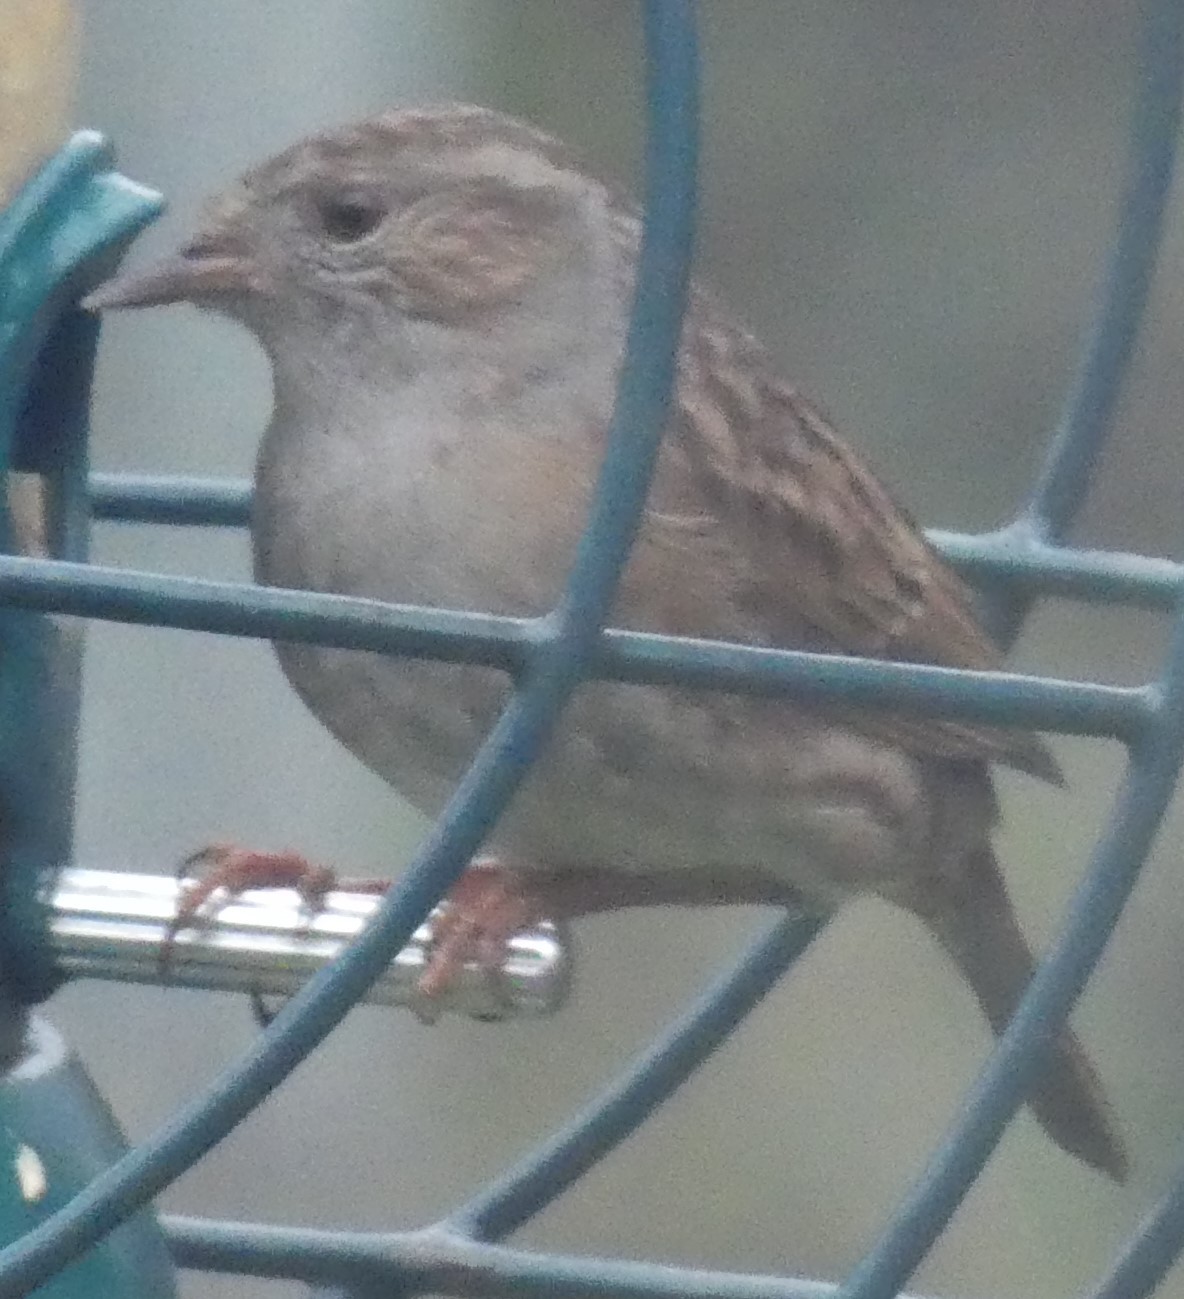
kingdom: Animalia
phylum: Chordata
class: Aves
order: Passeriformes
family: Prunellidae
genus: Prunella
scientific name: Prunella modularis
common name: Dunnock
